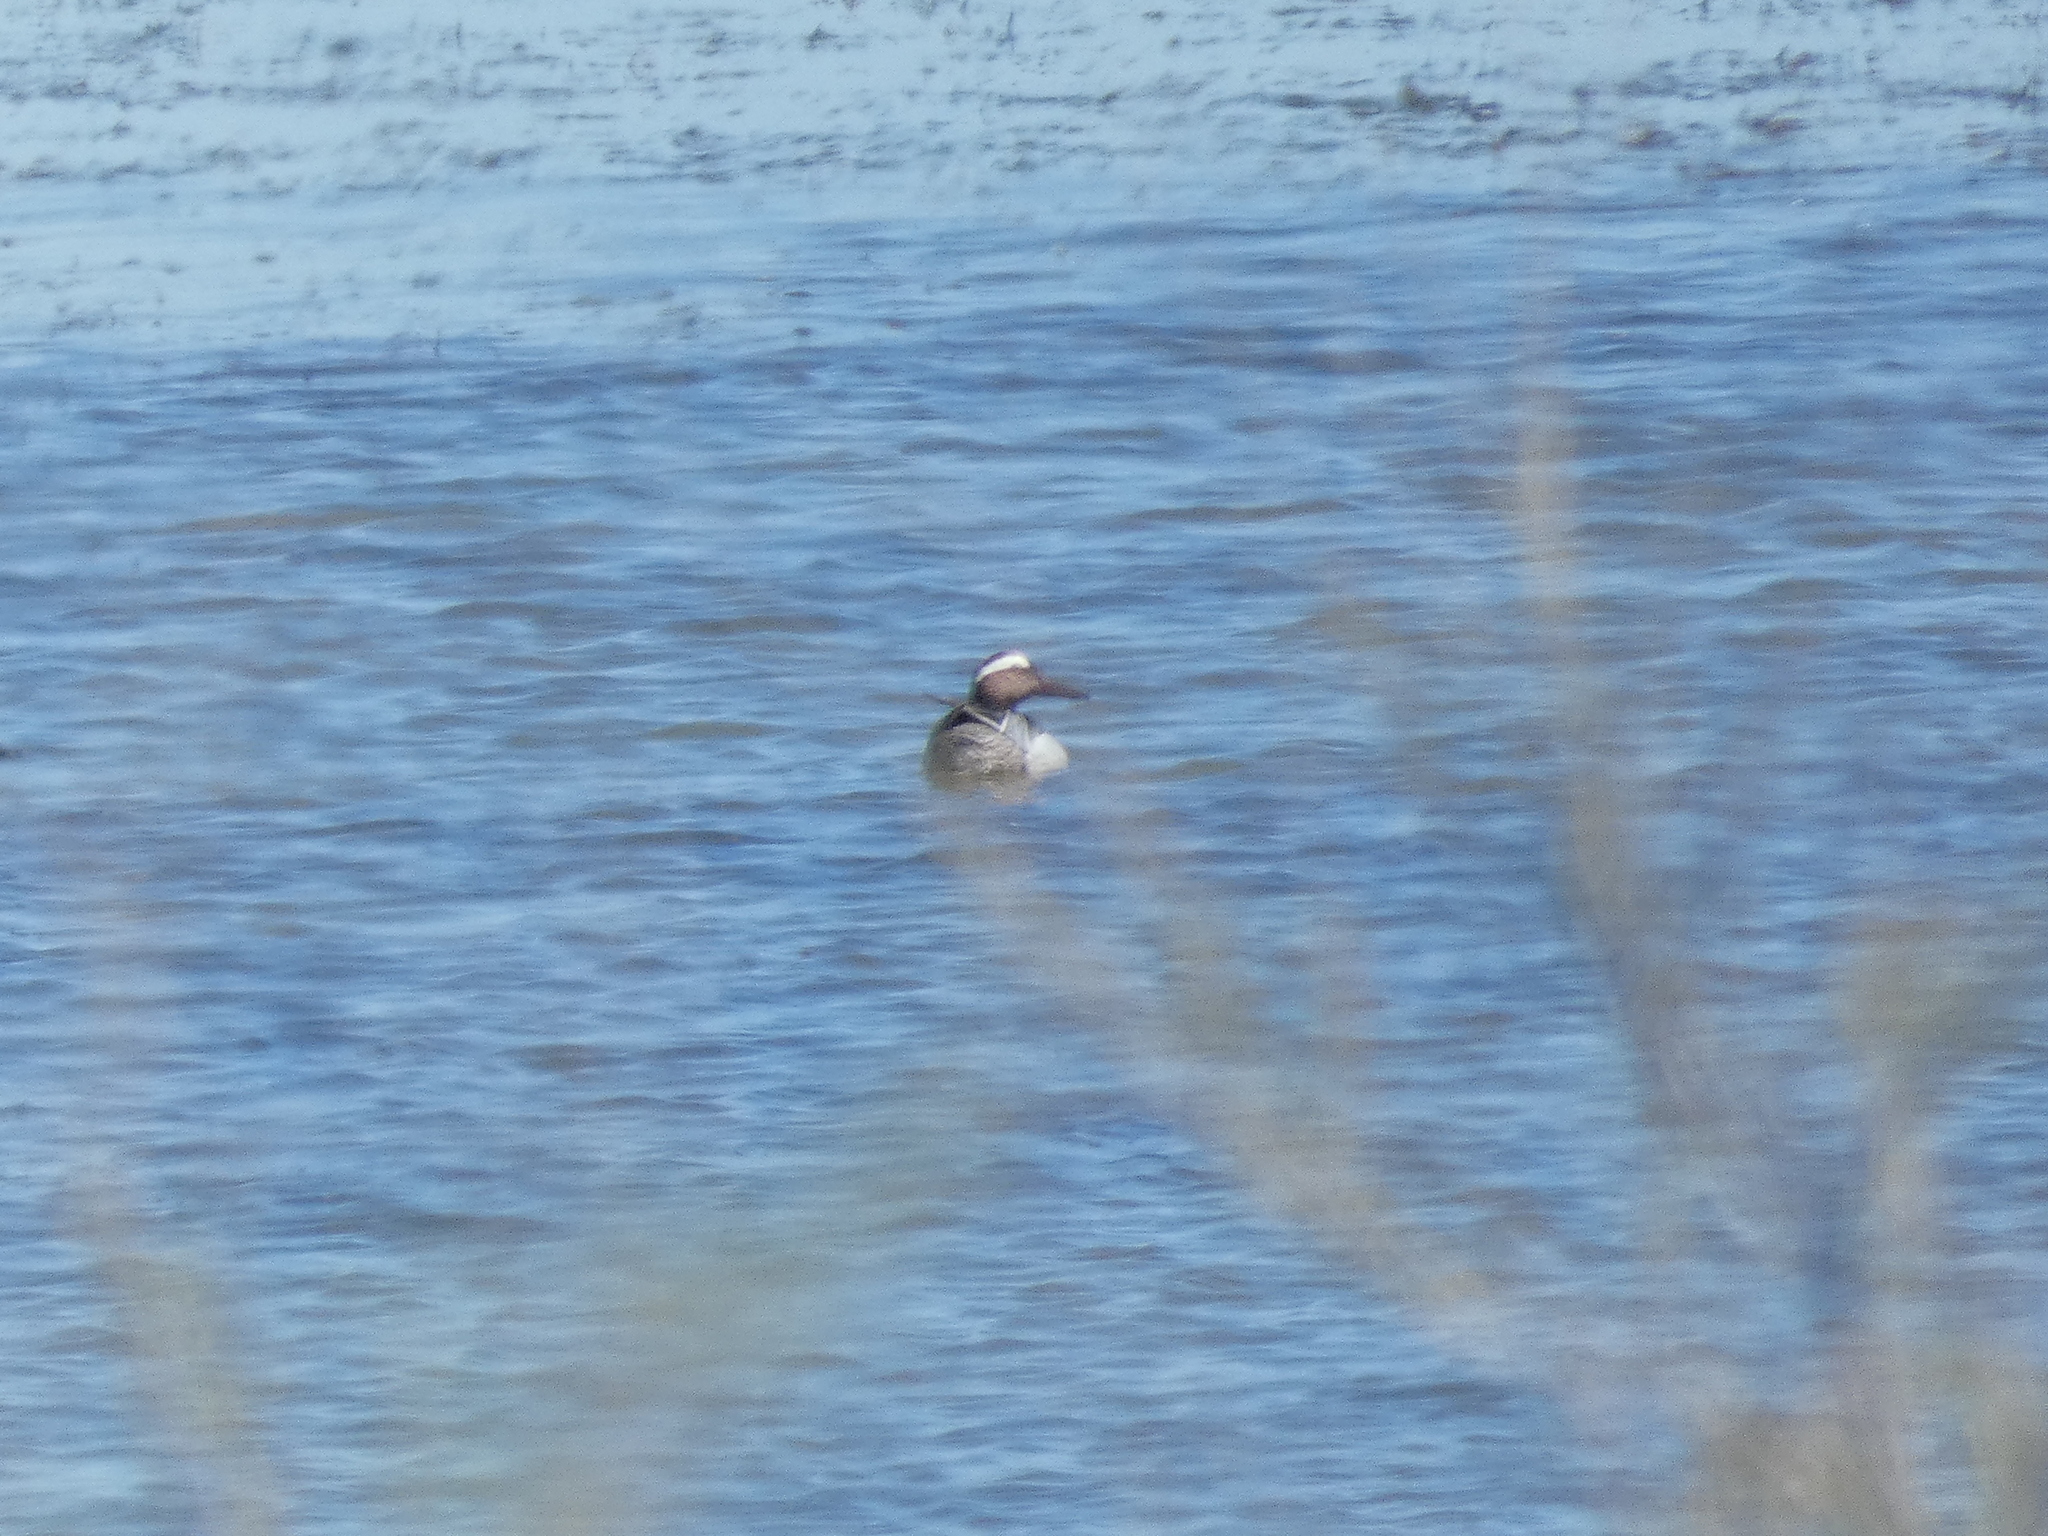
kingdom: Animalia
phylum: Chordata
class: Aves
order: Anseriformes
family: Anatidae
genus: Spatula
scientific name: Spatula querquedula
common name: Garganey
